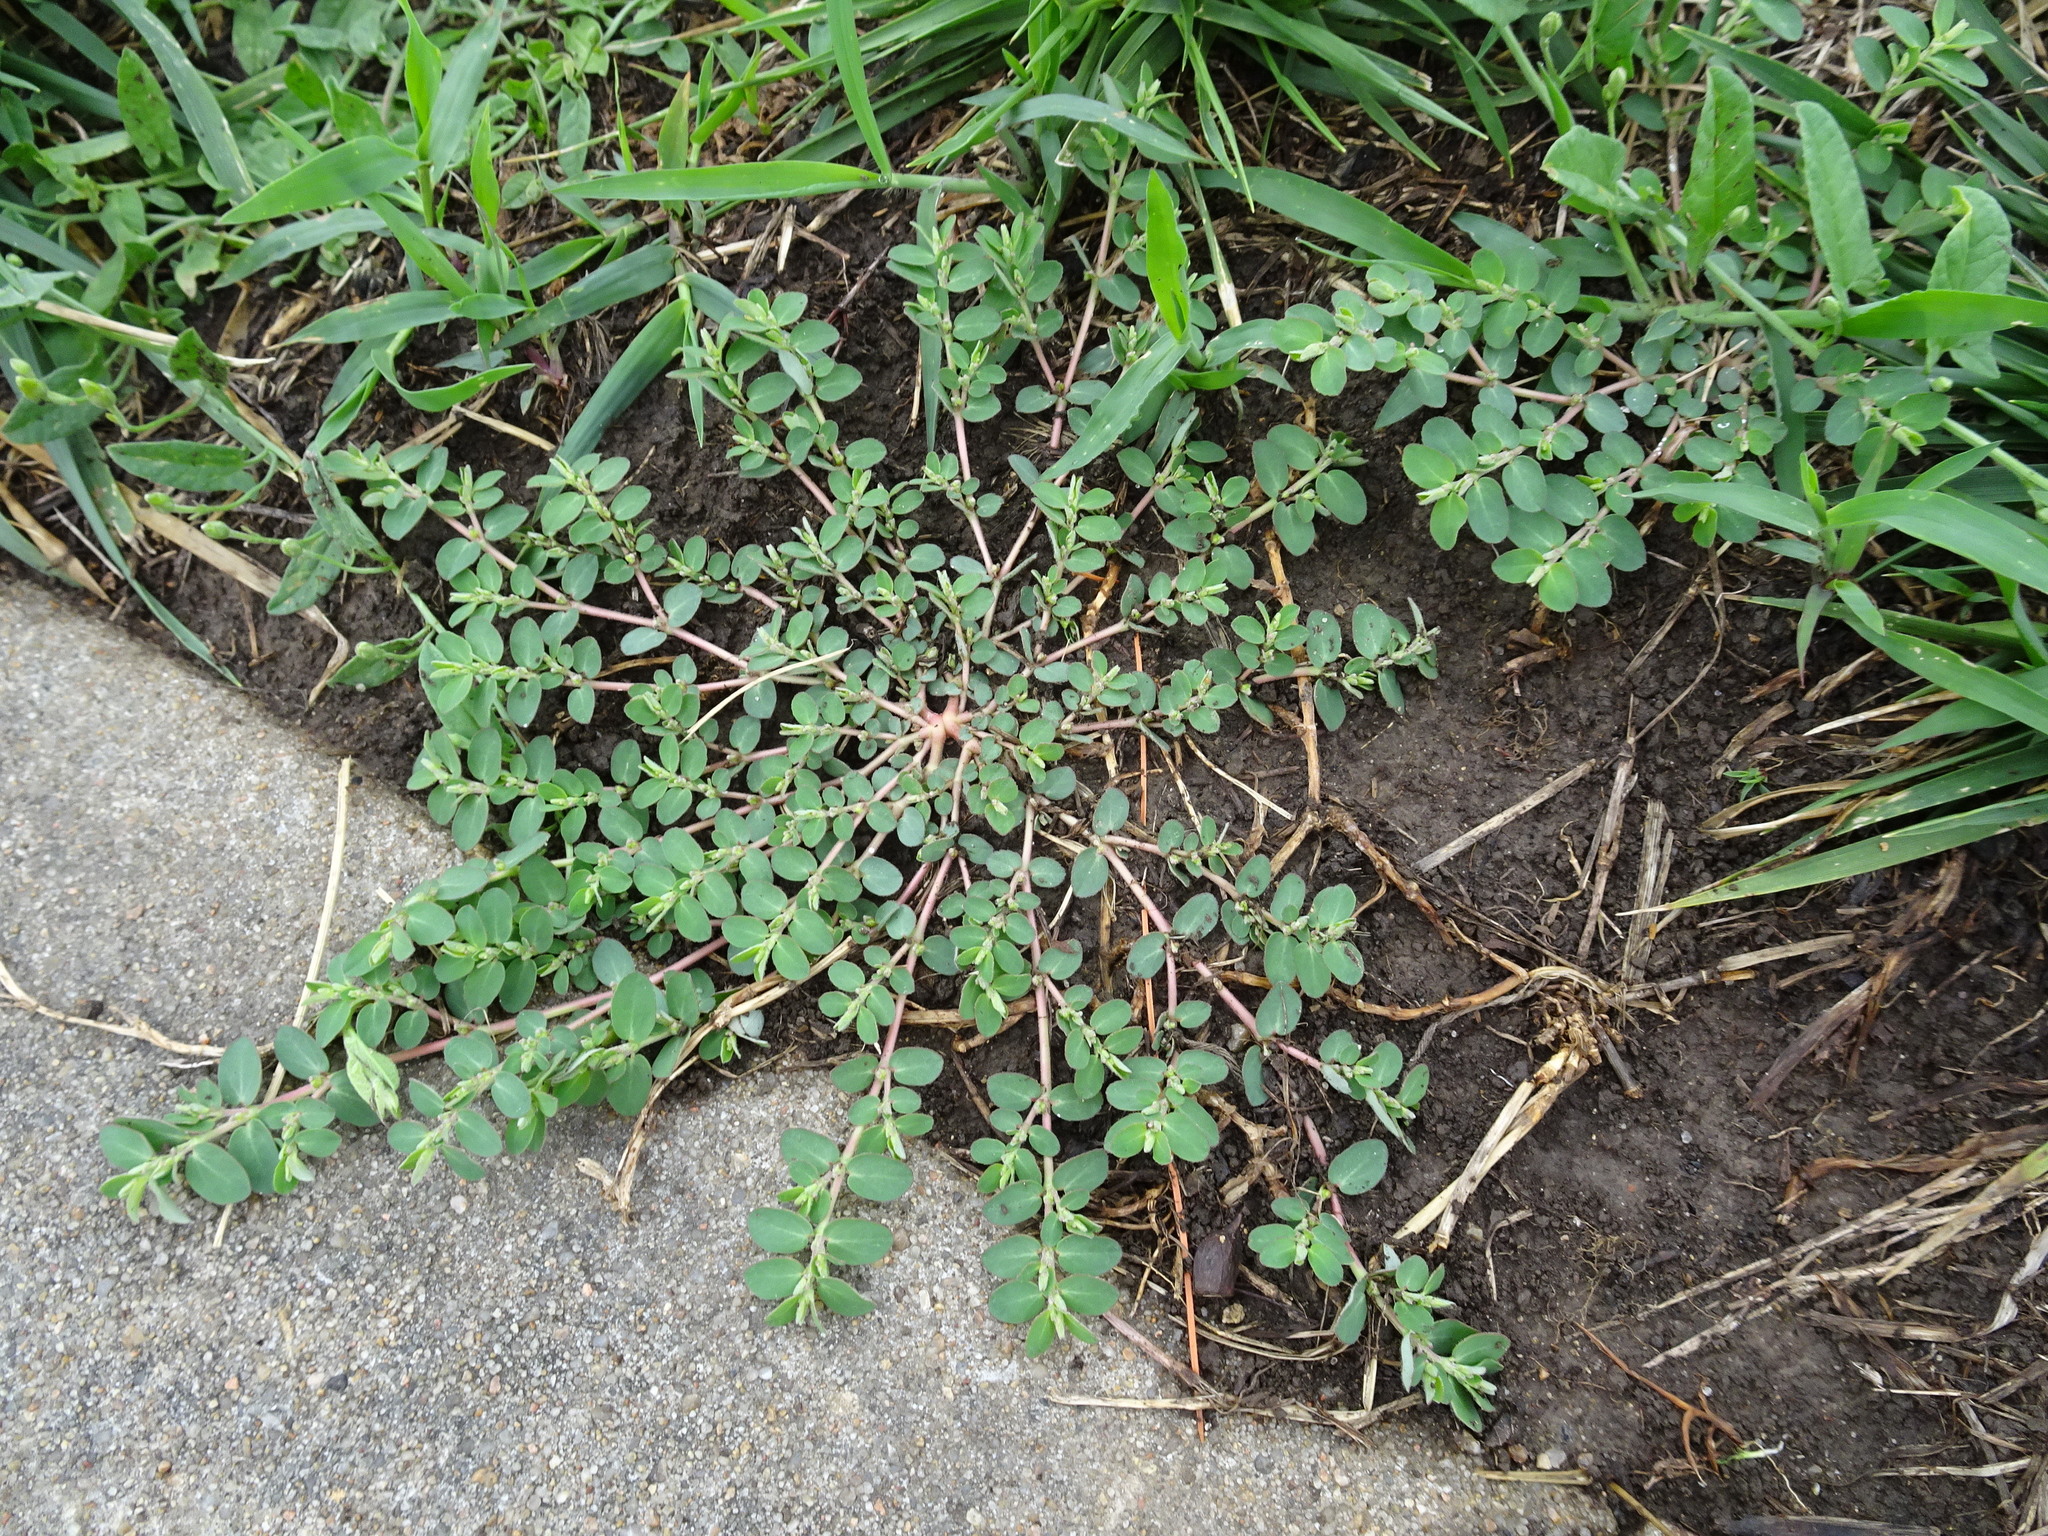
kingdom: Plantae
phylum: Tracheophyta
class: Magnoliopsida
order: Malpighiales
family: Euphorbiaceae
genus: Euphorbia
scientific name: Euphorbia prostrata
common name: Prostrate sandmat
